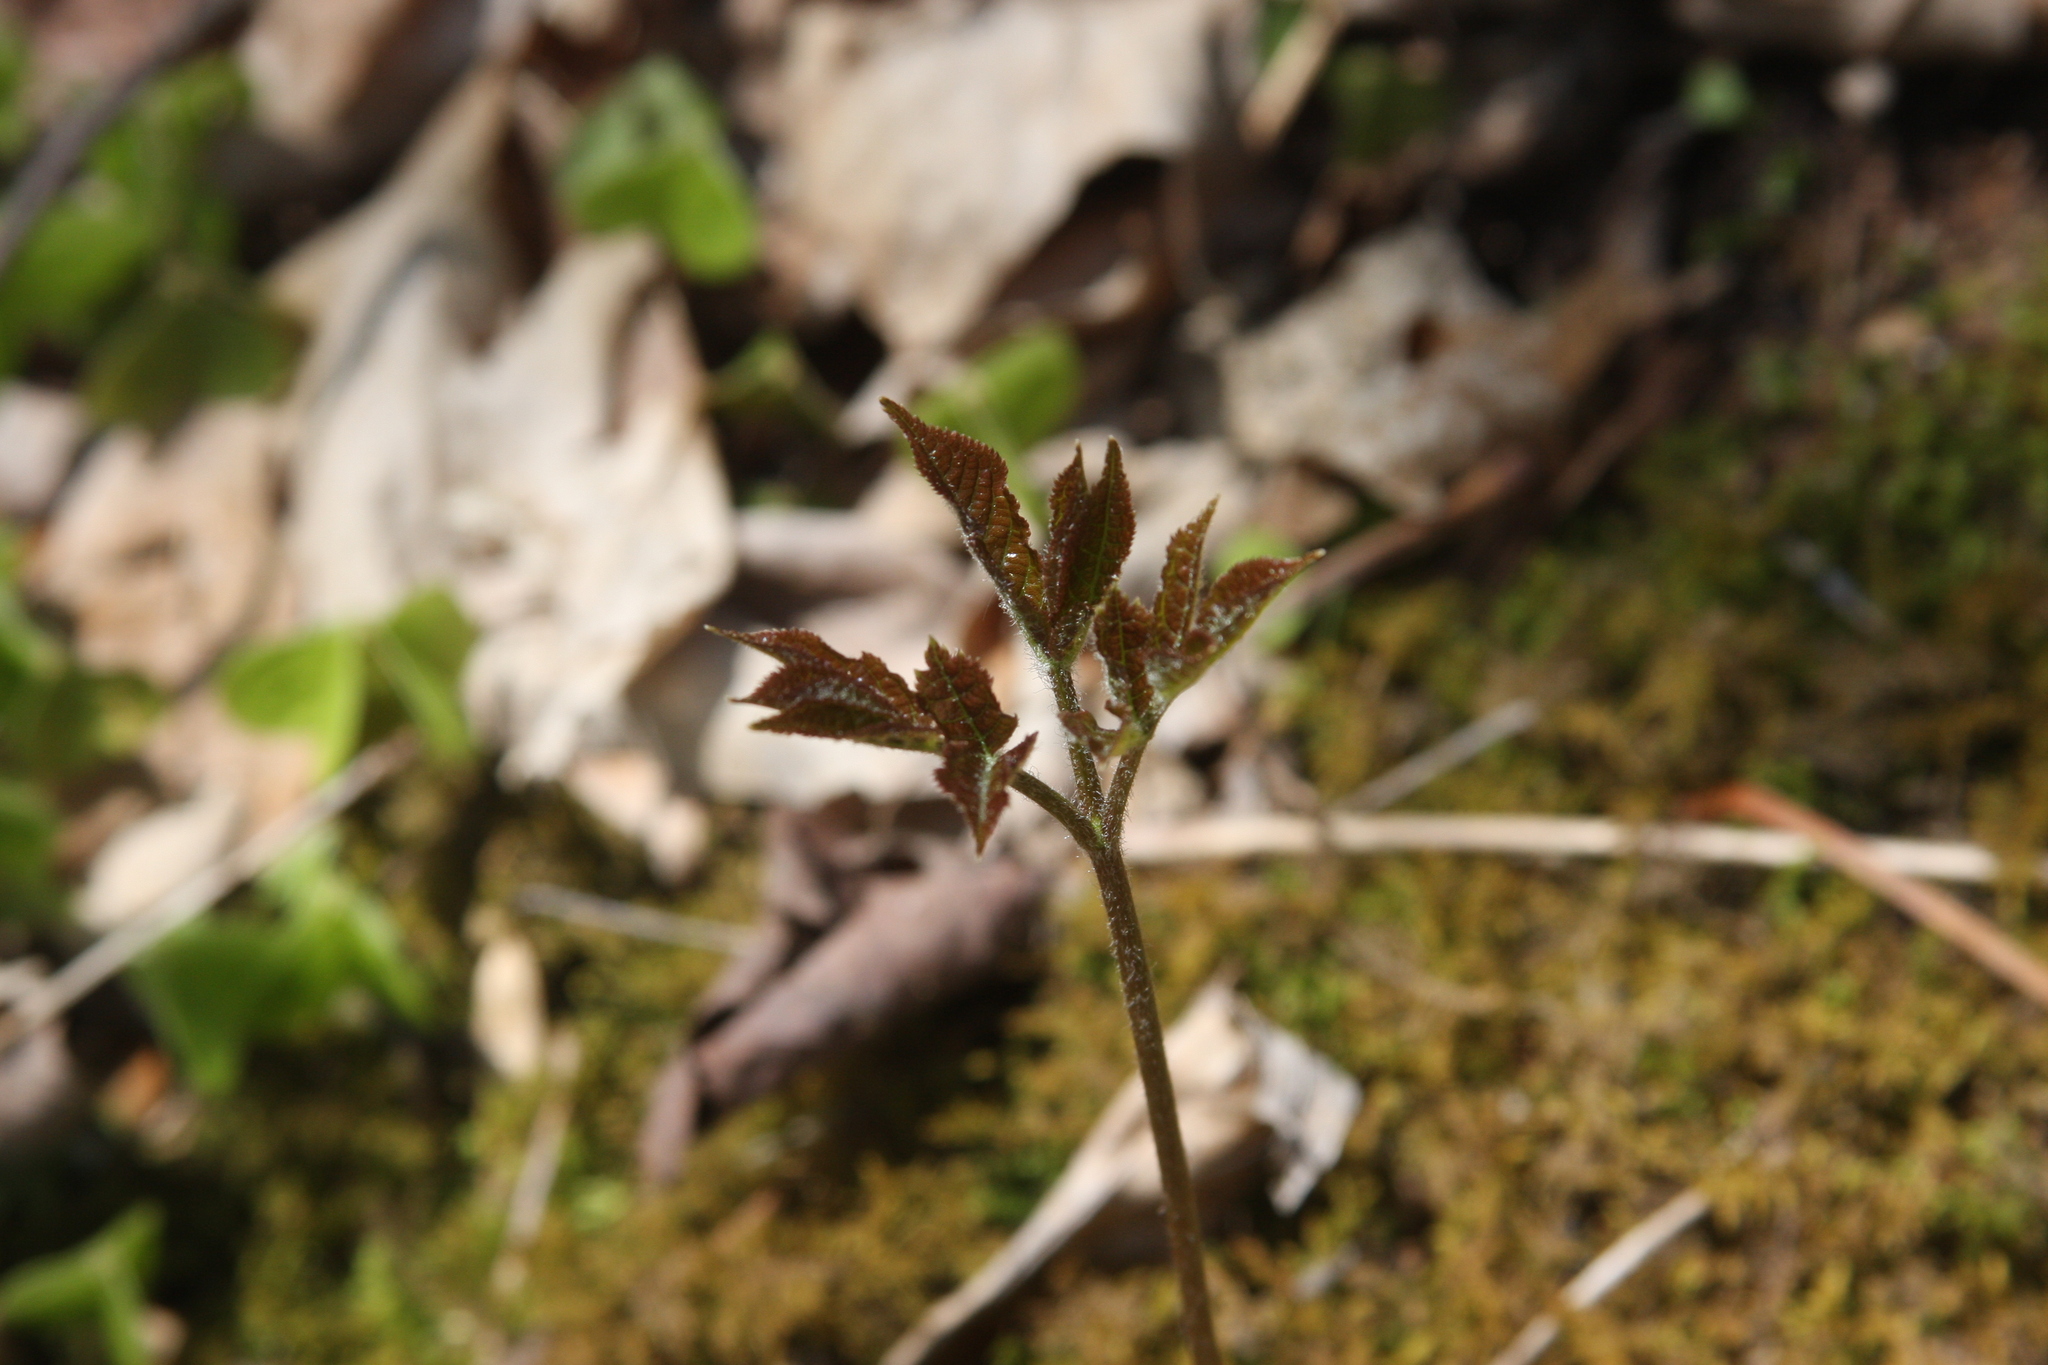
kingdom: Plantae
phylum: Tracheophyta
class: Magnoliopsida
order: Apiales
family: Araliaceae
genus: Aralia
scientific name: Aralia nudicaulis
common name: Wild sarsaparilla
